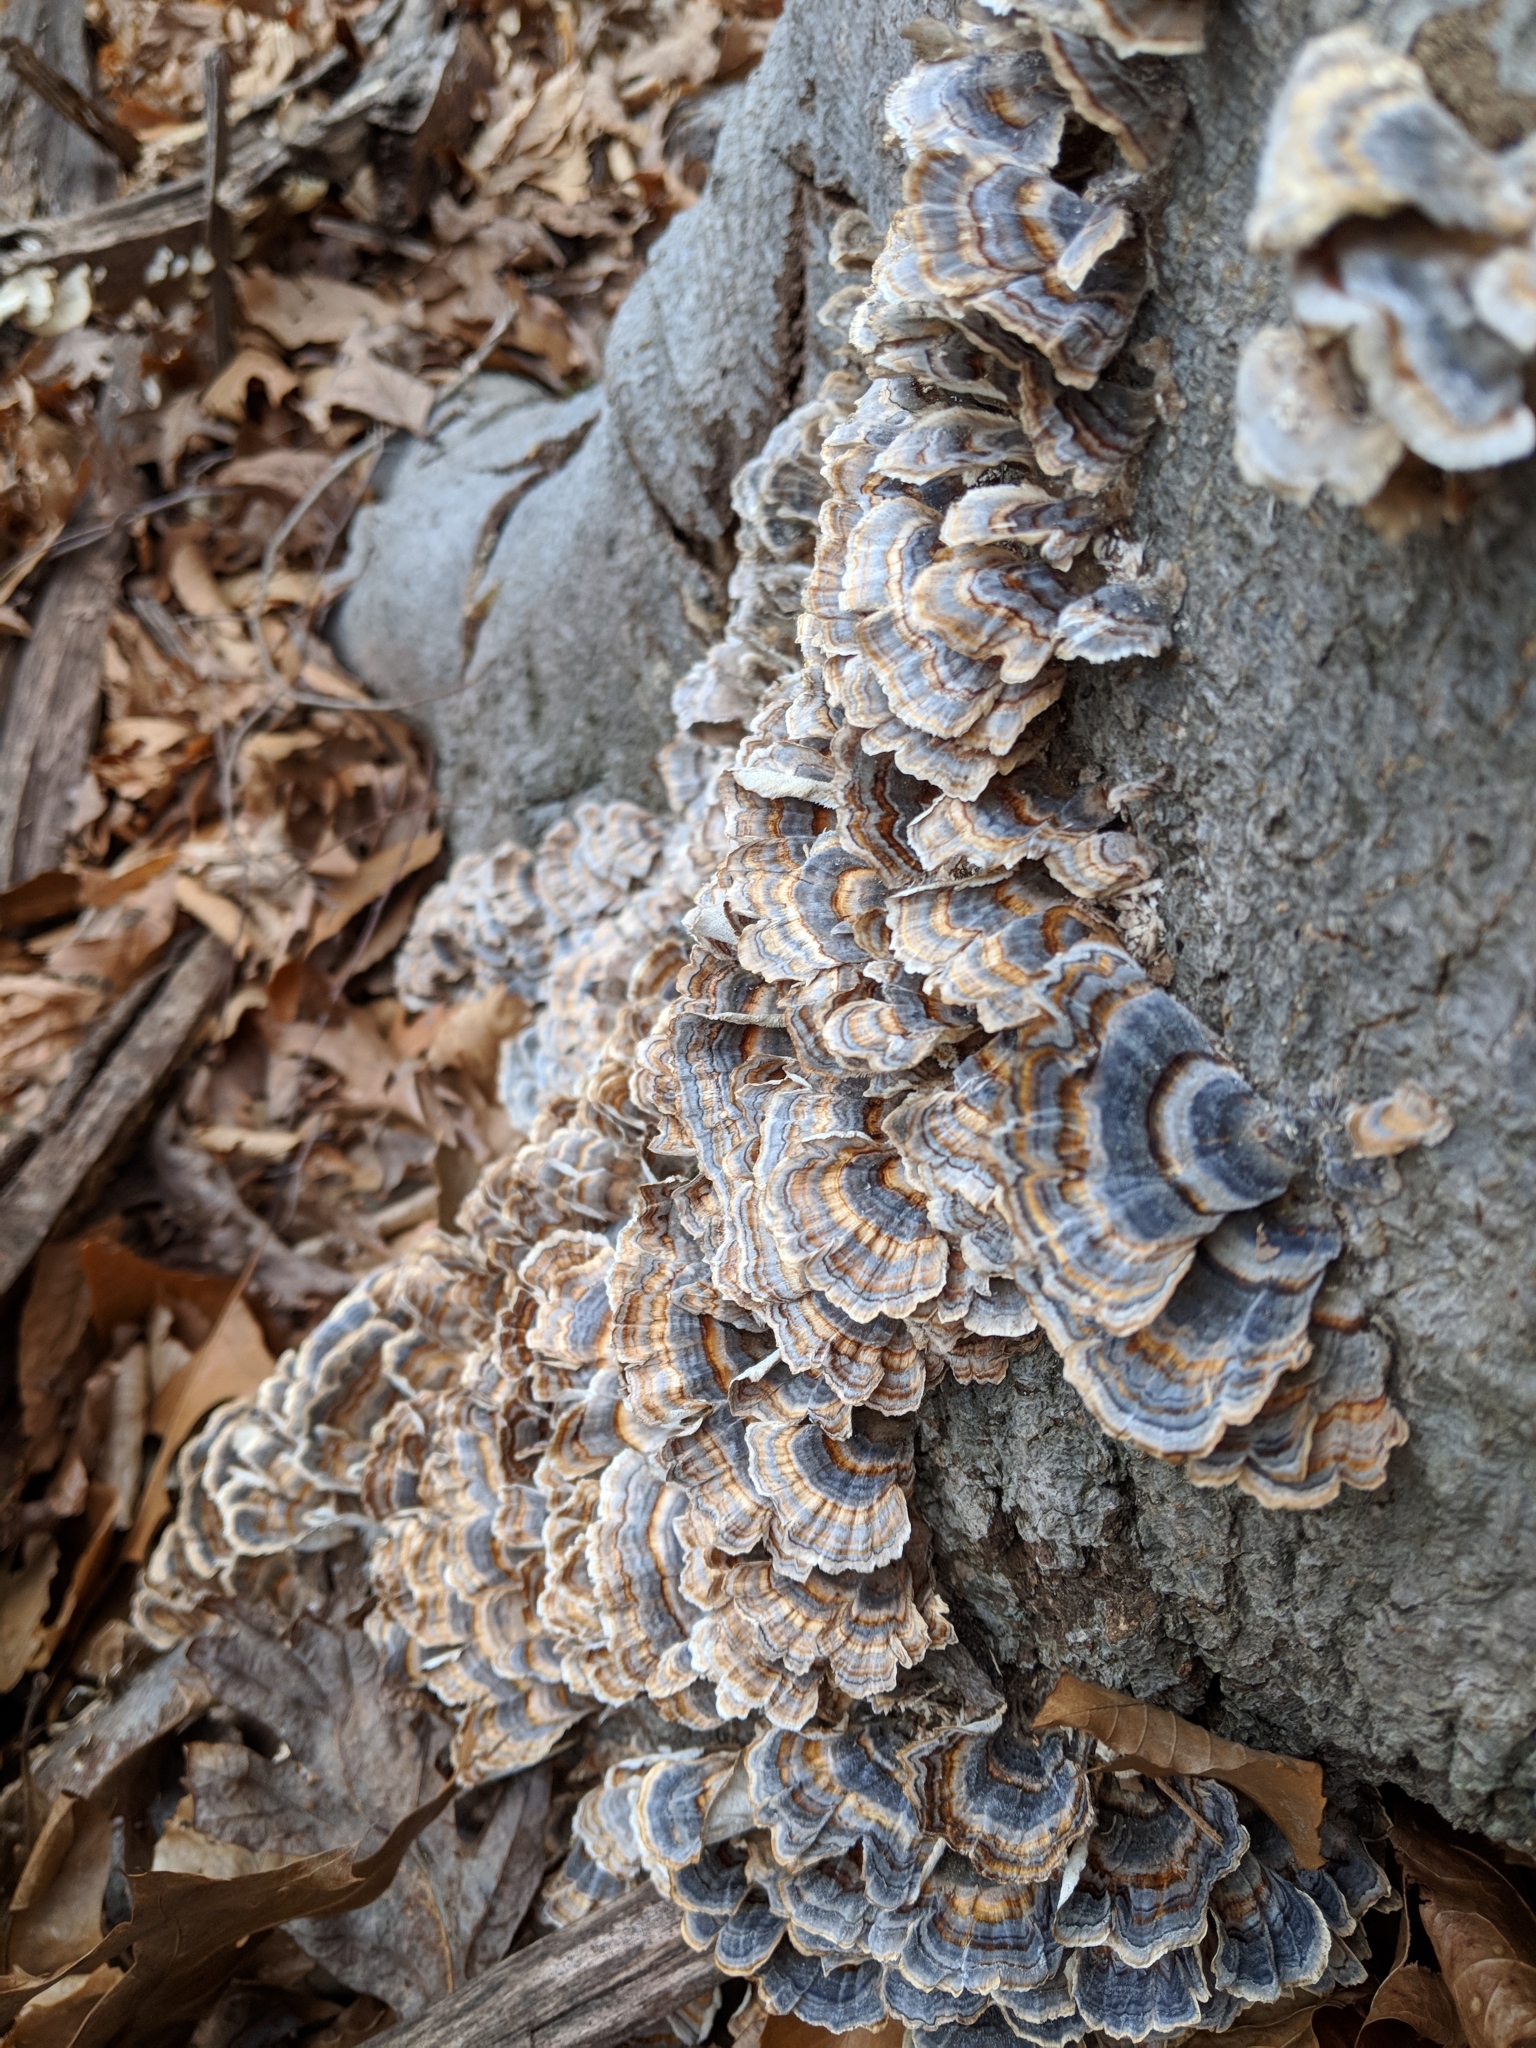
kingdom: Fungi
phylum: Basidiomycota
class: Agaricomycetes
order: Polyporales
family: Polyporaceae
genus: Trametes
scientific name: Trametes versicolor
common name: Turkeytail
